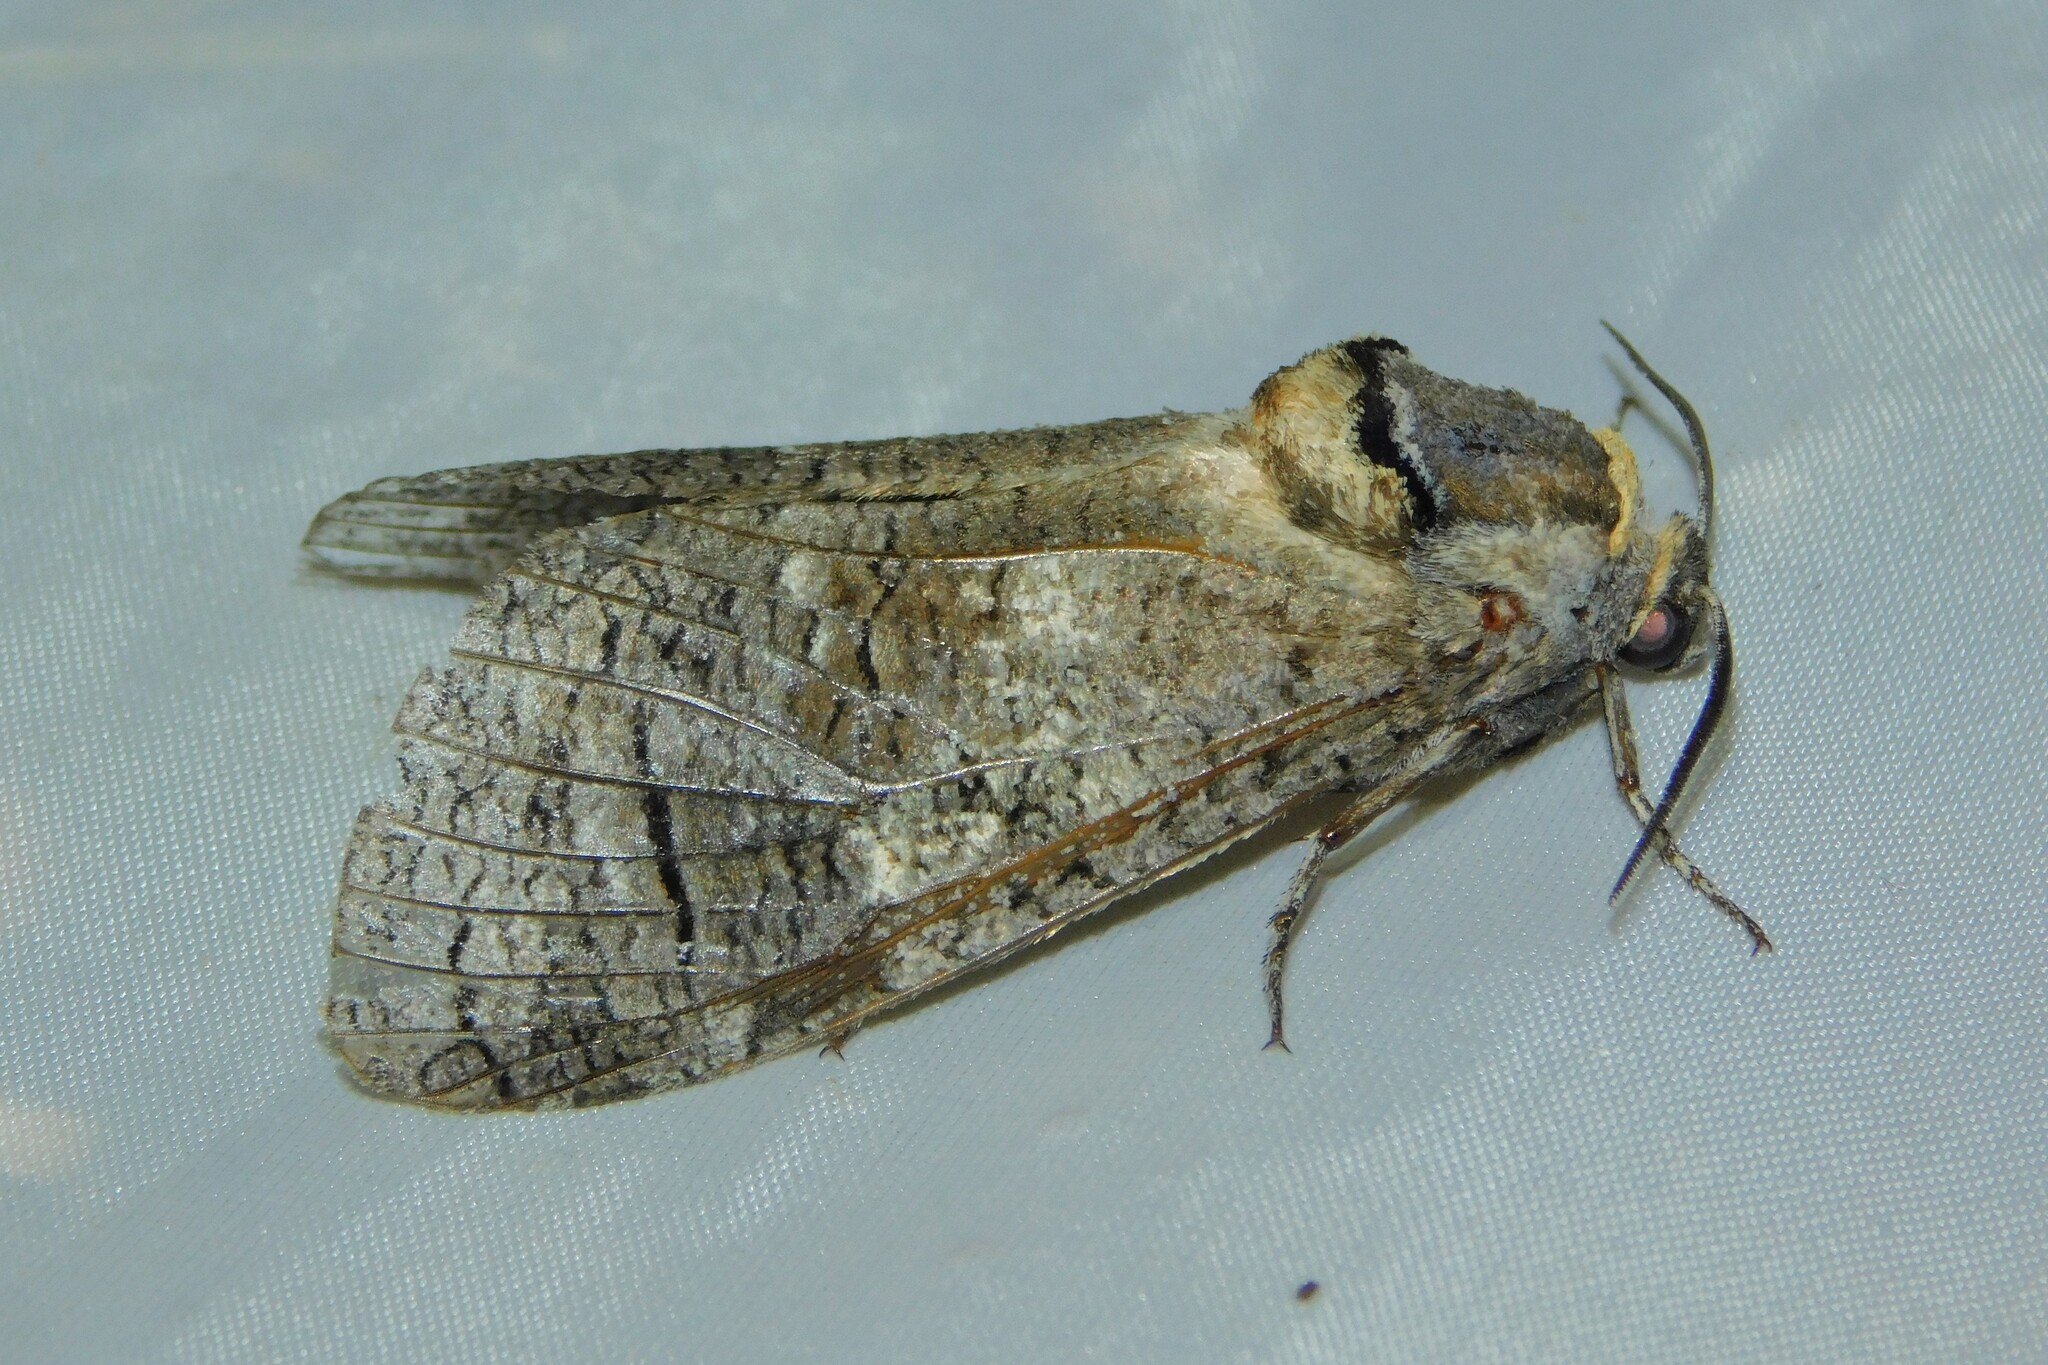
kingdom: Animalia
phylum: Arthropoda
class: Insecta
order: Lepidoptera
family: Cossidae
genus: Cossus
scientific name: Cossus cossus
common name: Goat moth
